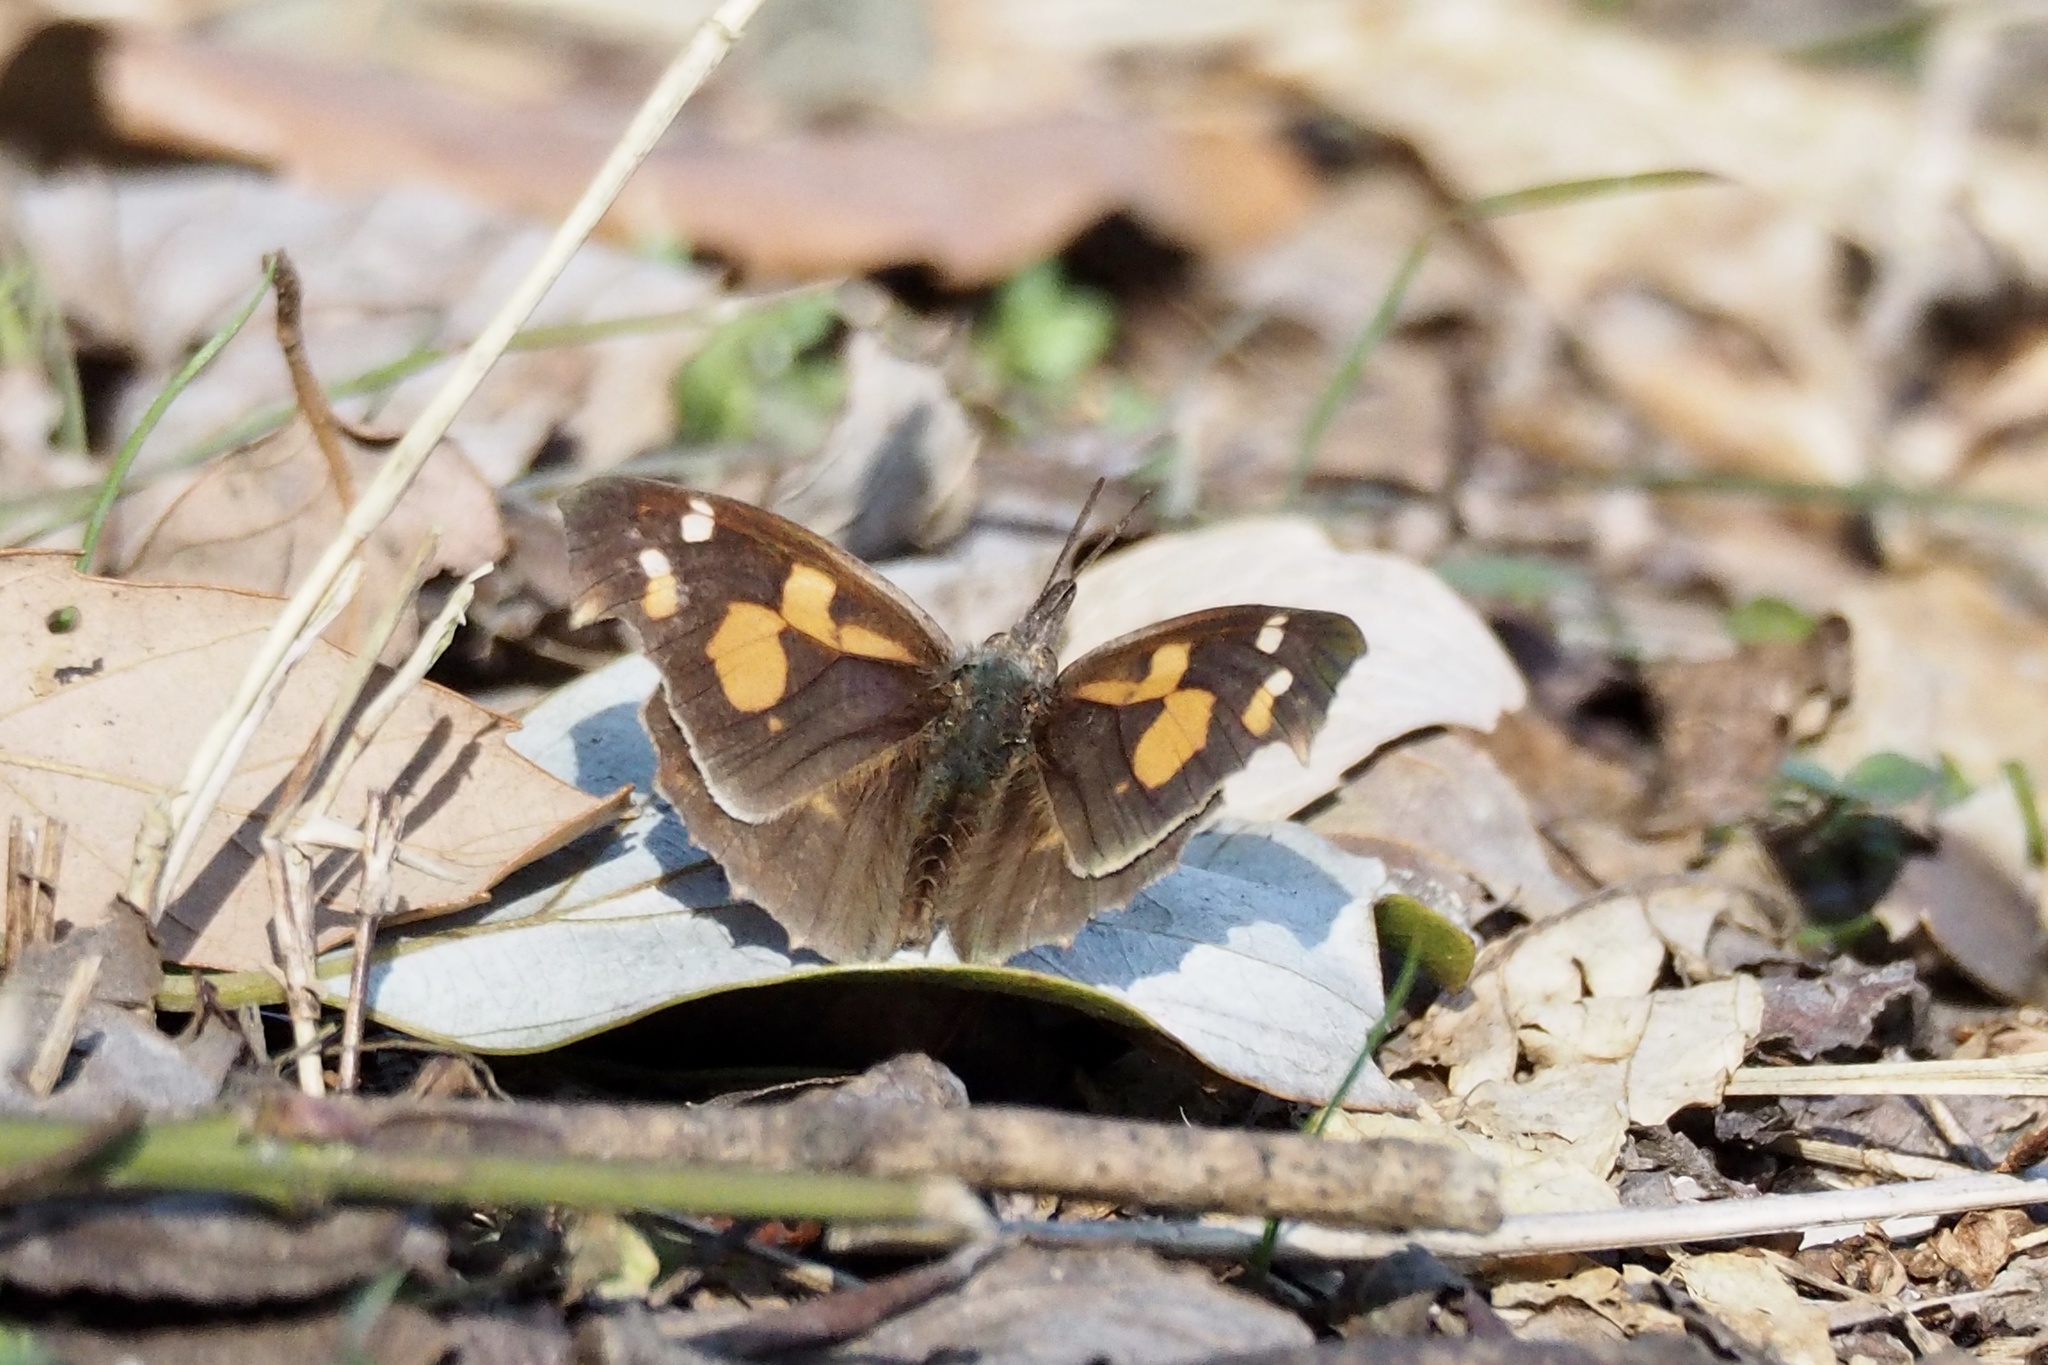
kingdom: Animalia
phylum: Arthropoda
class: Insecta
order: Lepidoptera
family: Nymphalidae
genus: Libythea
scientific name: Libythea lepita
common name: Common beak
